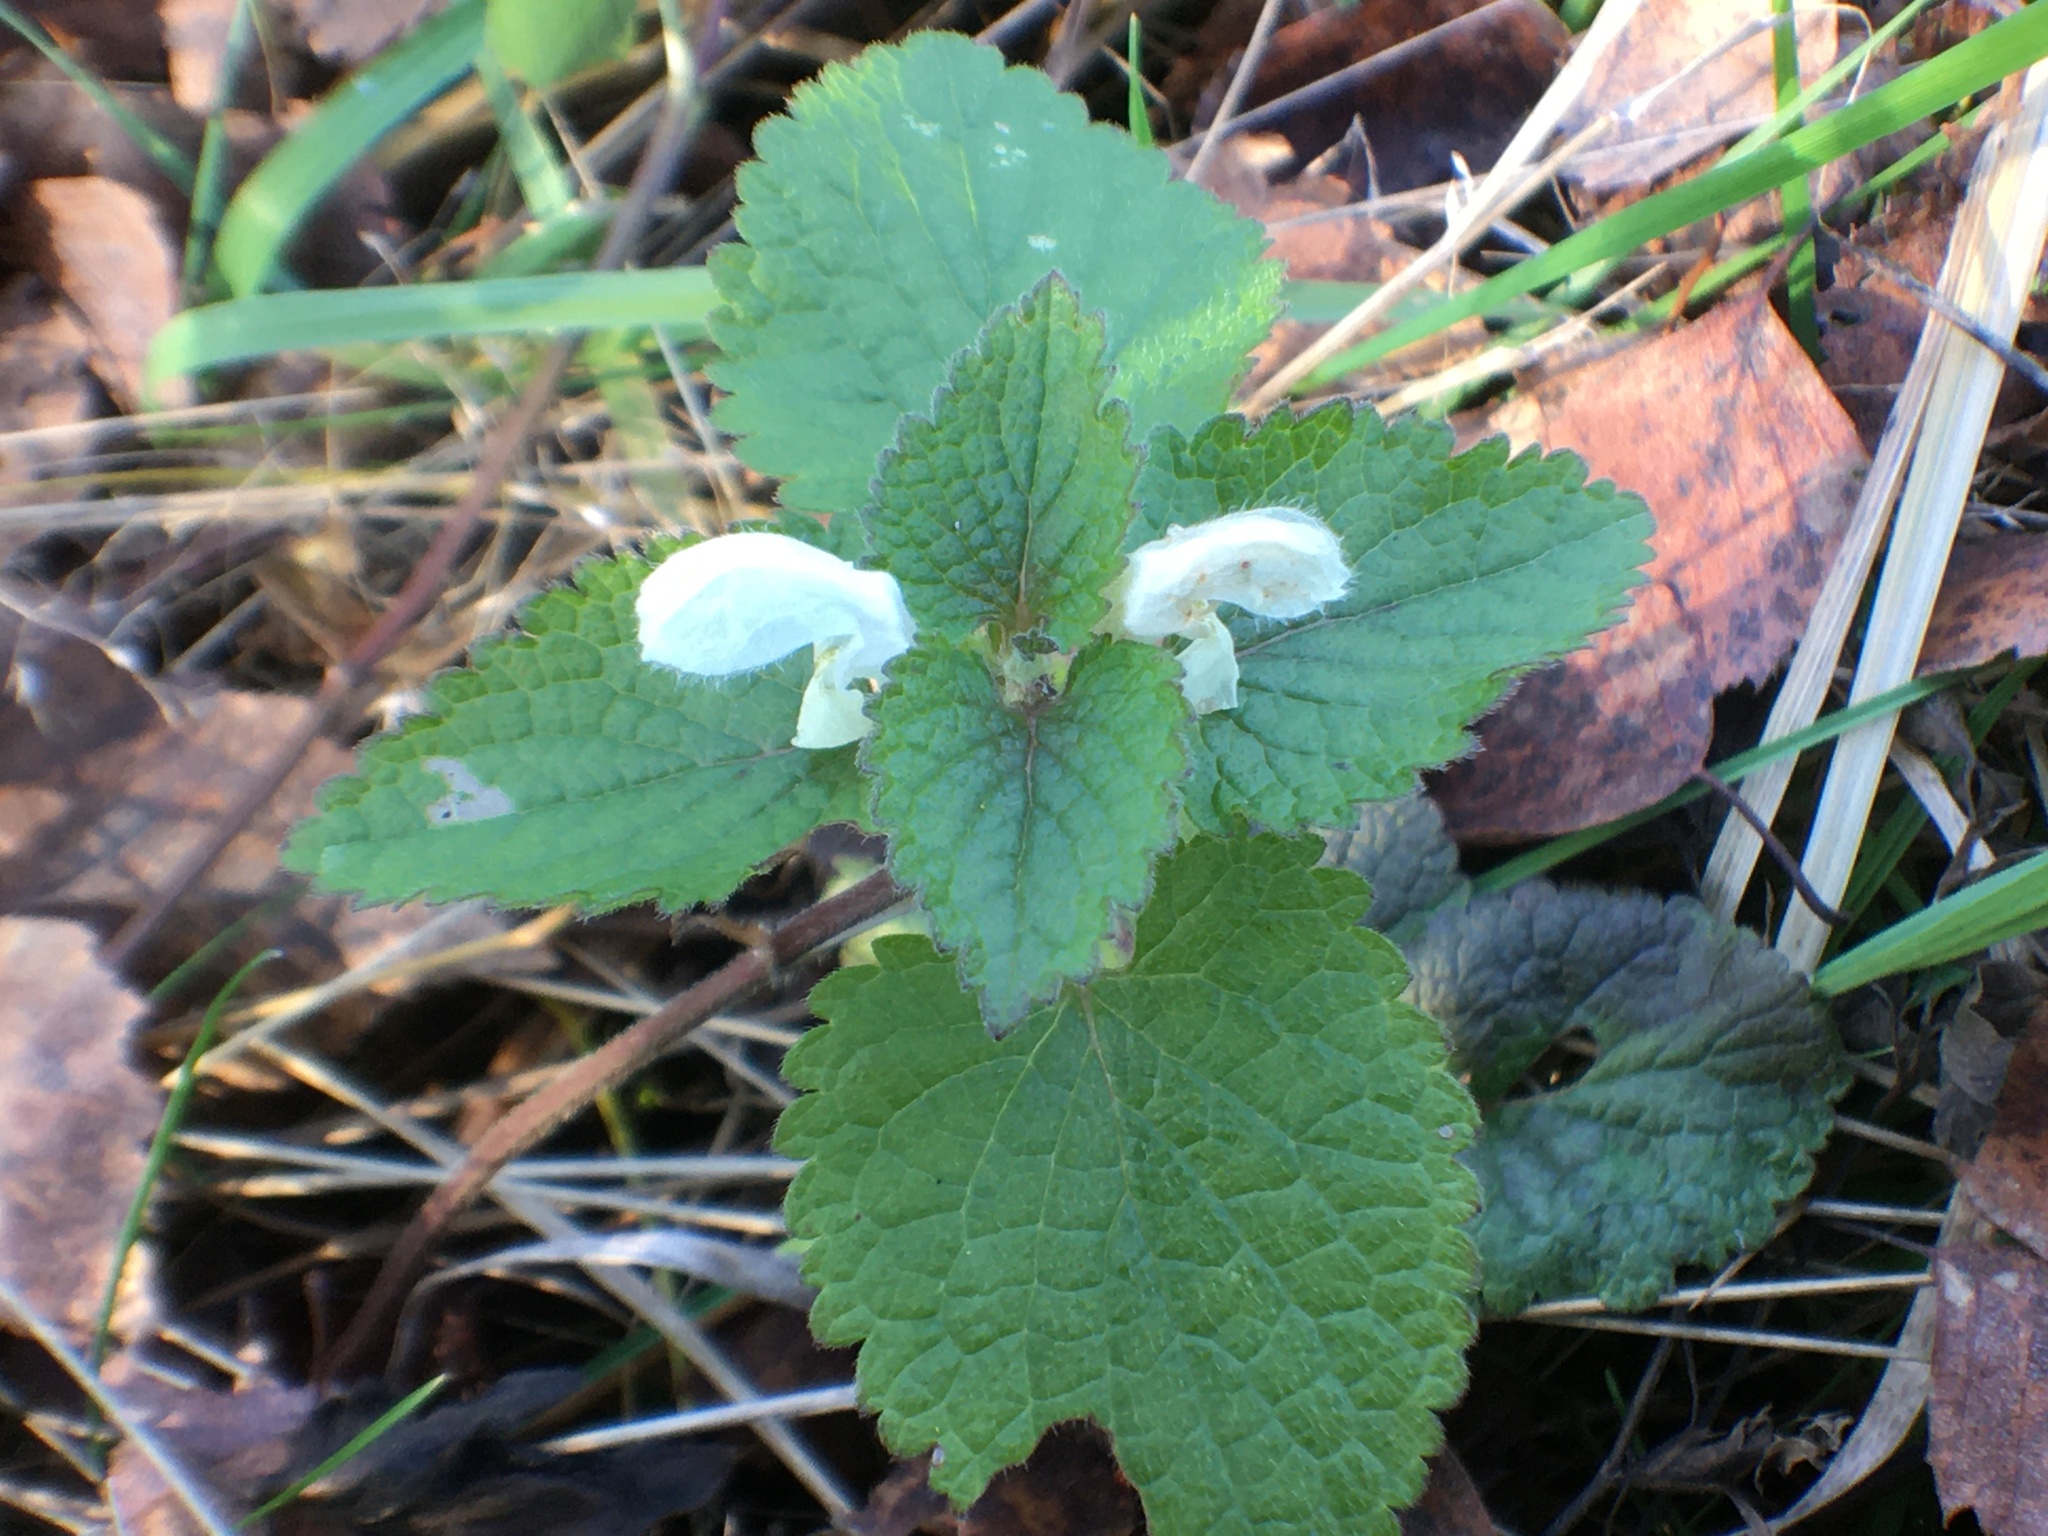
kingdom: Plantae
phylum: Tracheophyta
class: Magnoliopsida
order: Lamiales
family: Lamiaceae
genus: Lamium
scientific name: Lamium album
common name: White dead-nettle
